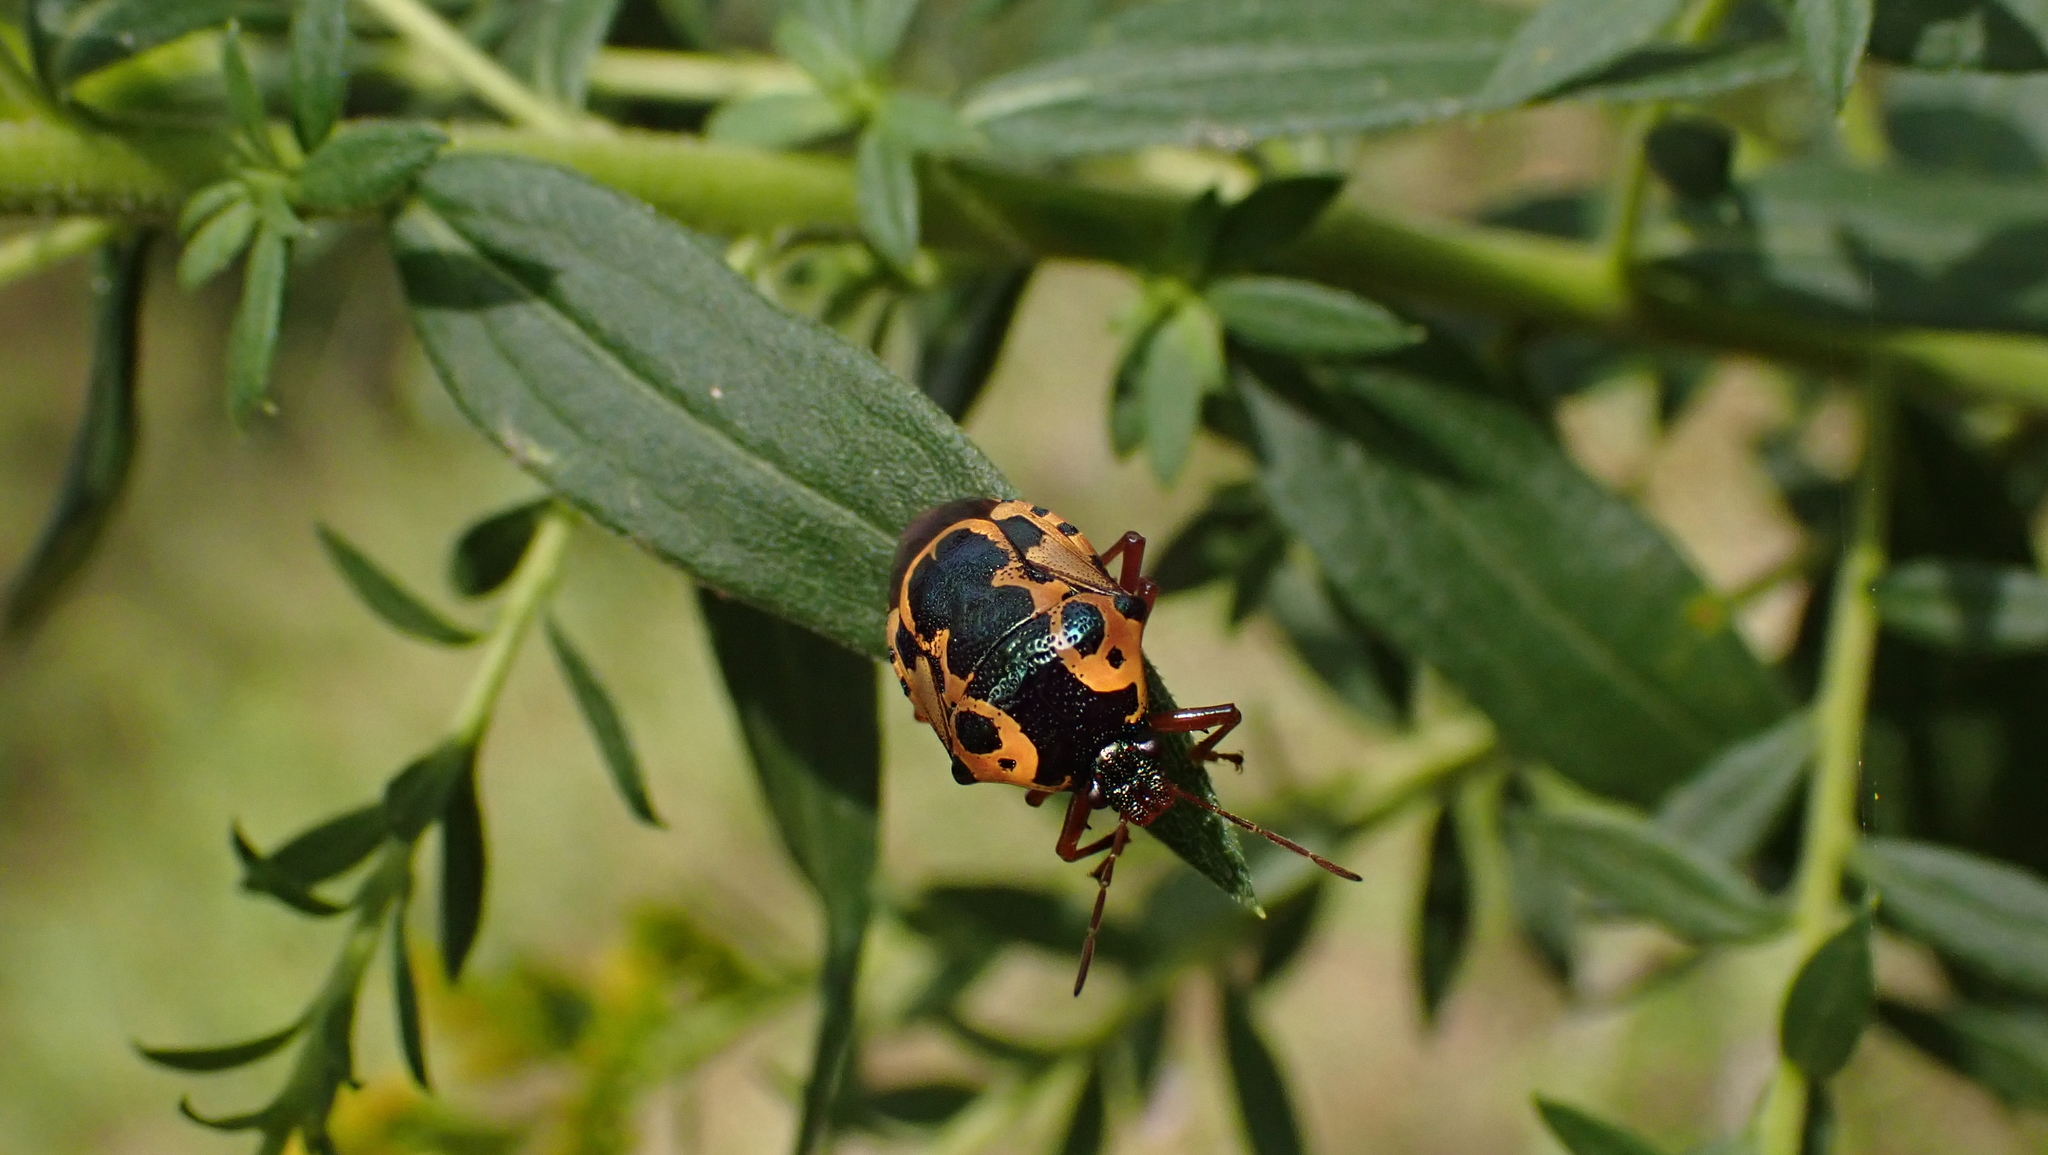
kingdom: Animalia
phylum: Arthropoda
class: Insecta
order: Hemiptera
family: Pentatomidae
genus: Stiretrus
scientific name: Stiretrus anchorago
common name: Anchor stink bug
